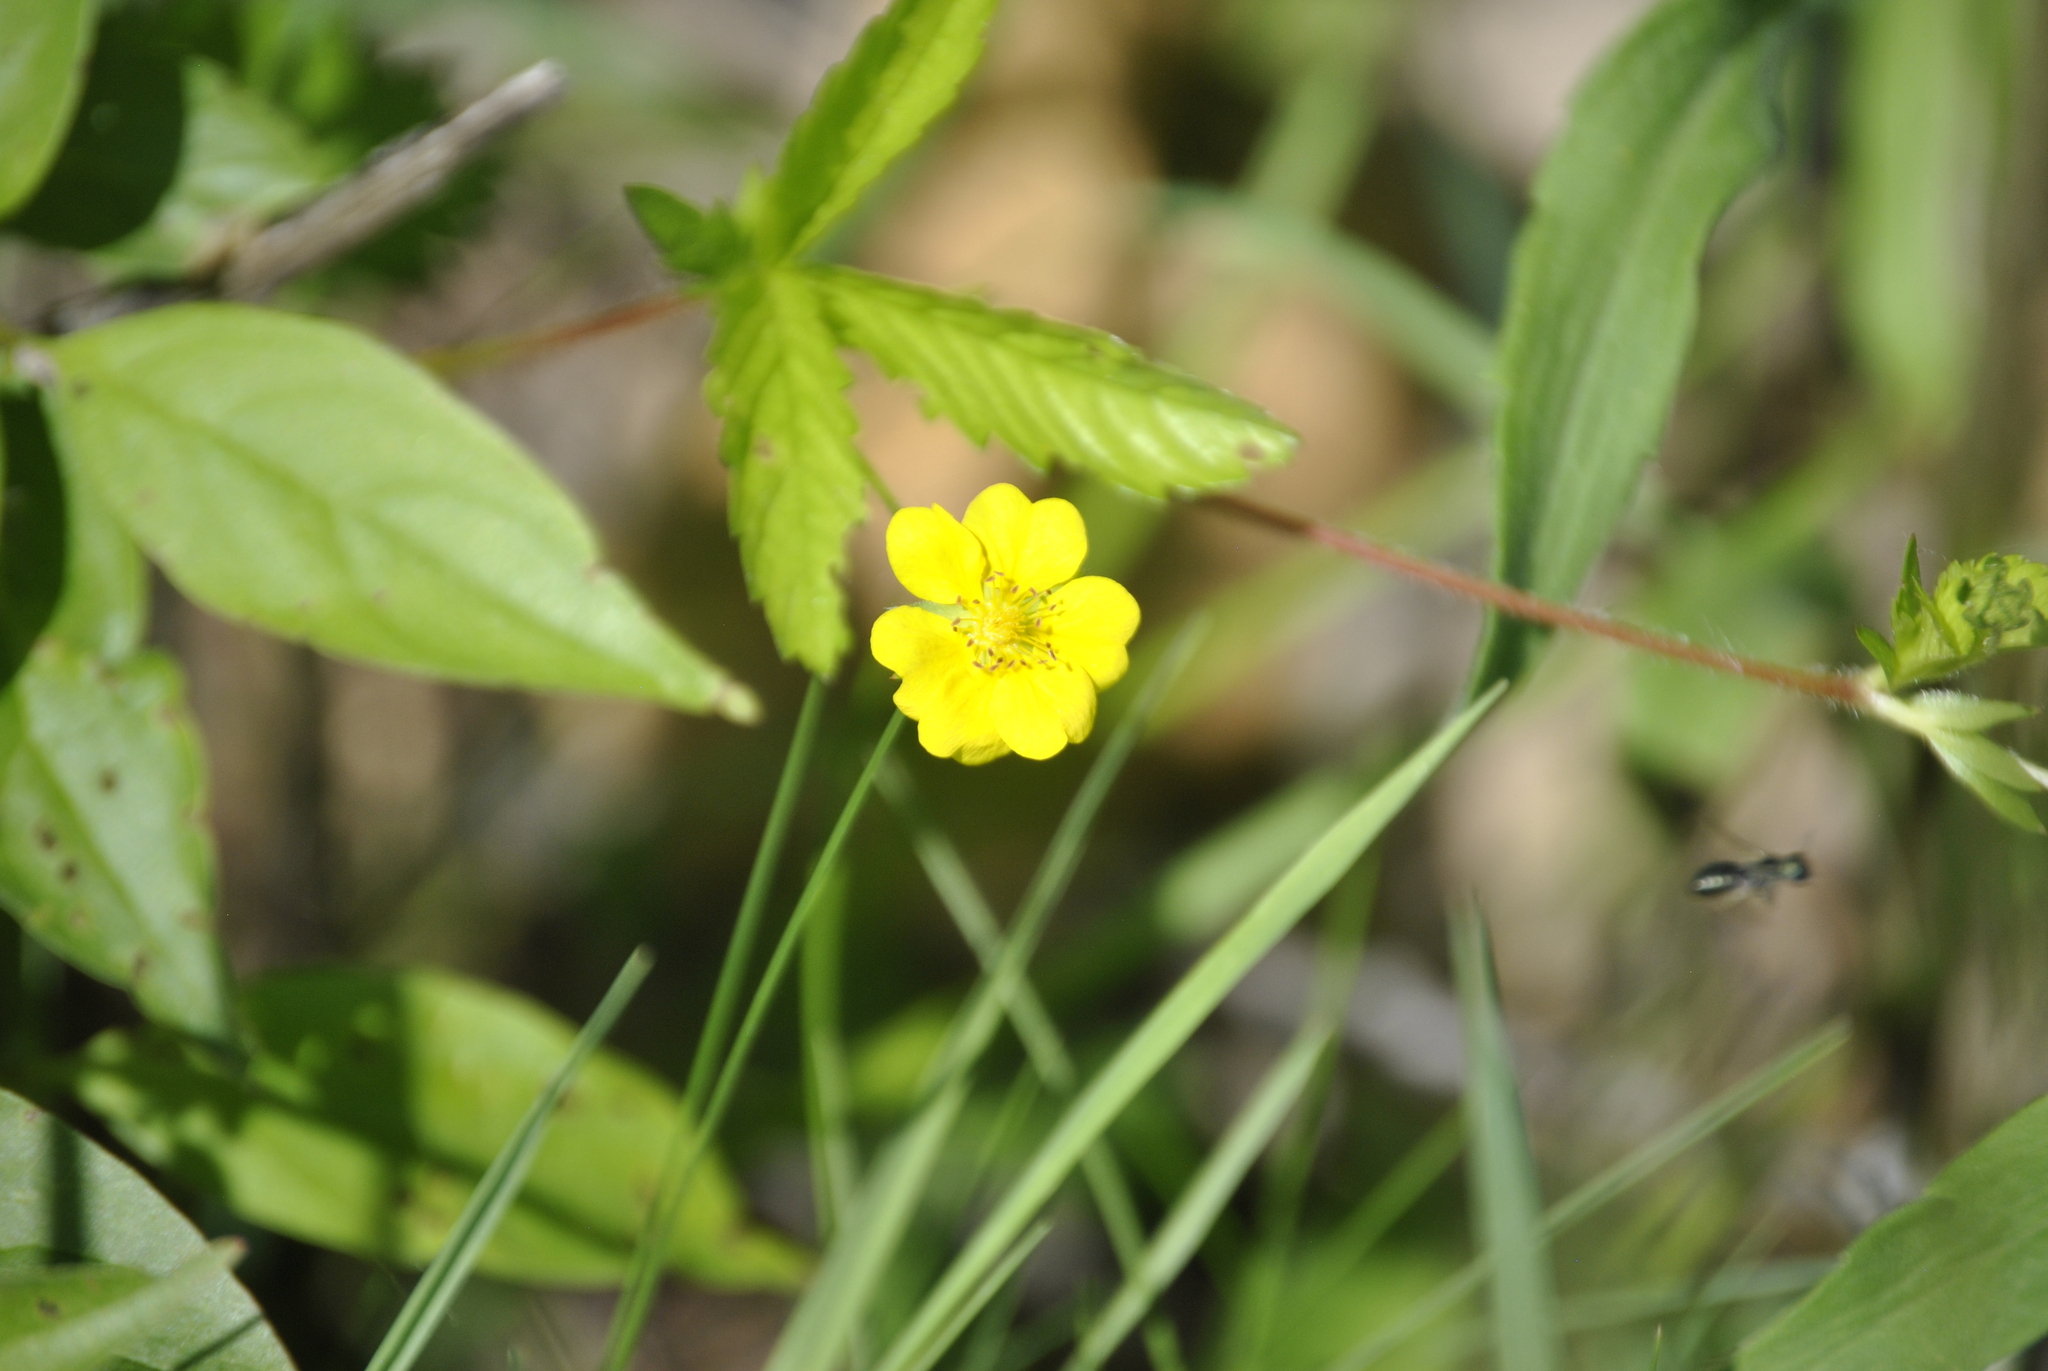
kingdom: Plantae
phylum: Tracheophyta
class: Magnoliopsida
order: Rosales
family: Rosaceae
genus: Potentilla
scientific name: Potentilla simplex
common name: Old field cinquefoil
